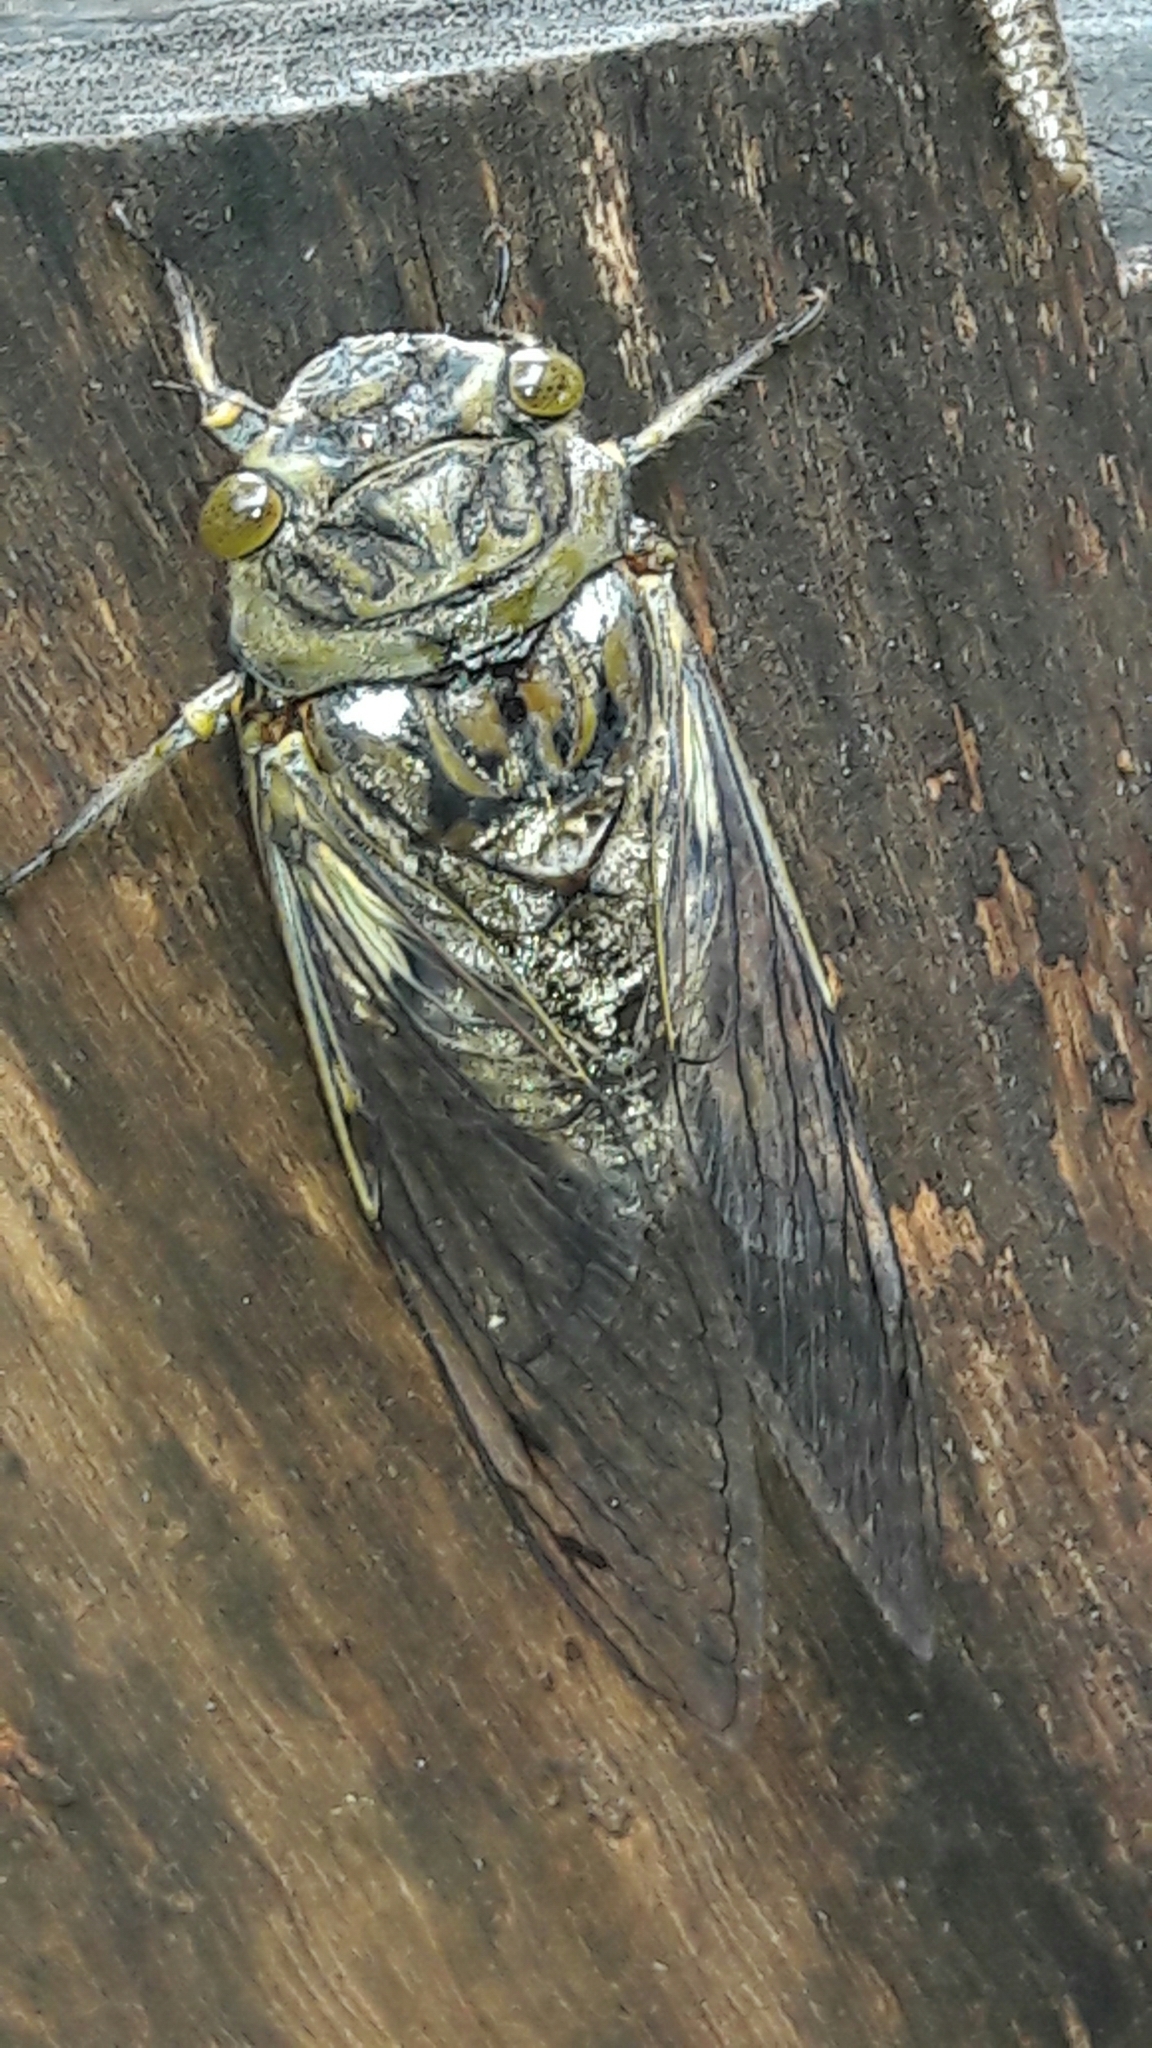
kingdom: Animalia
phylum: Arthropoda
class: Insecta
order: Hemiptera
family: Cicadidae
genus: Quesada
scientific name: Quesada gigas
